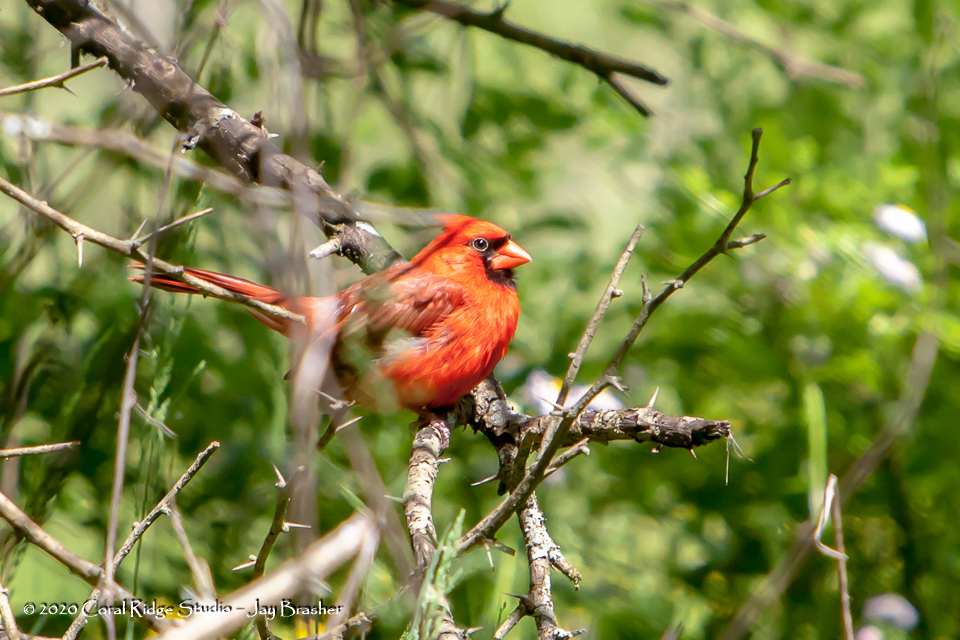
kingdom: Animalia
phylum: Chordata
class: Aves
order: Passeriformes
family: Cardinalidae
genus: Cardinalis
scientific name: Cardinalis cardinalis
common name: Northern cardinal
